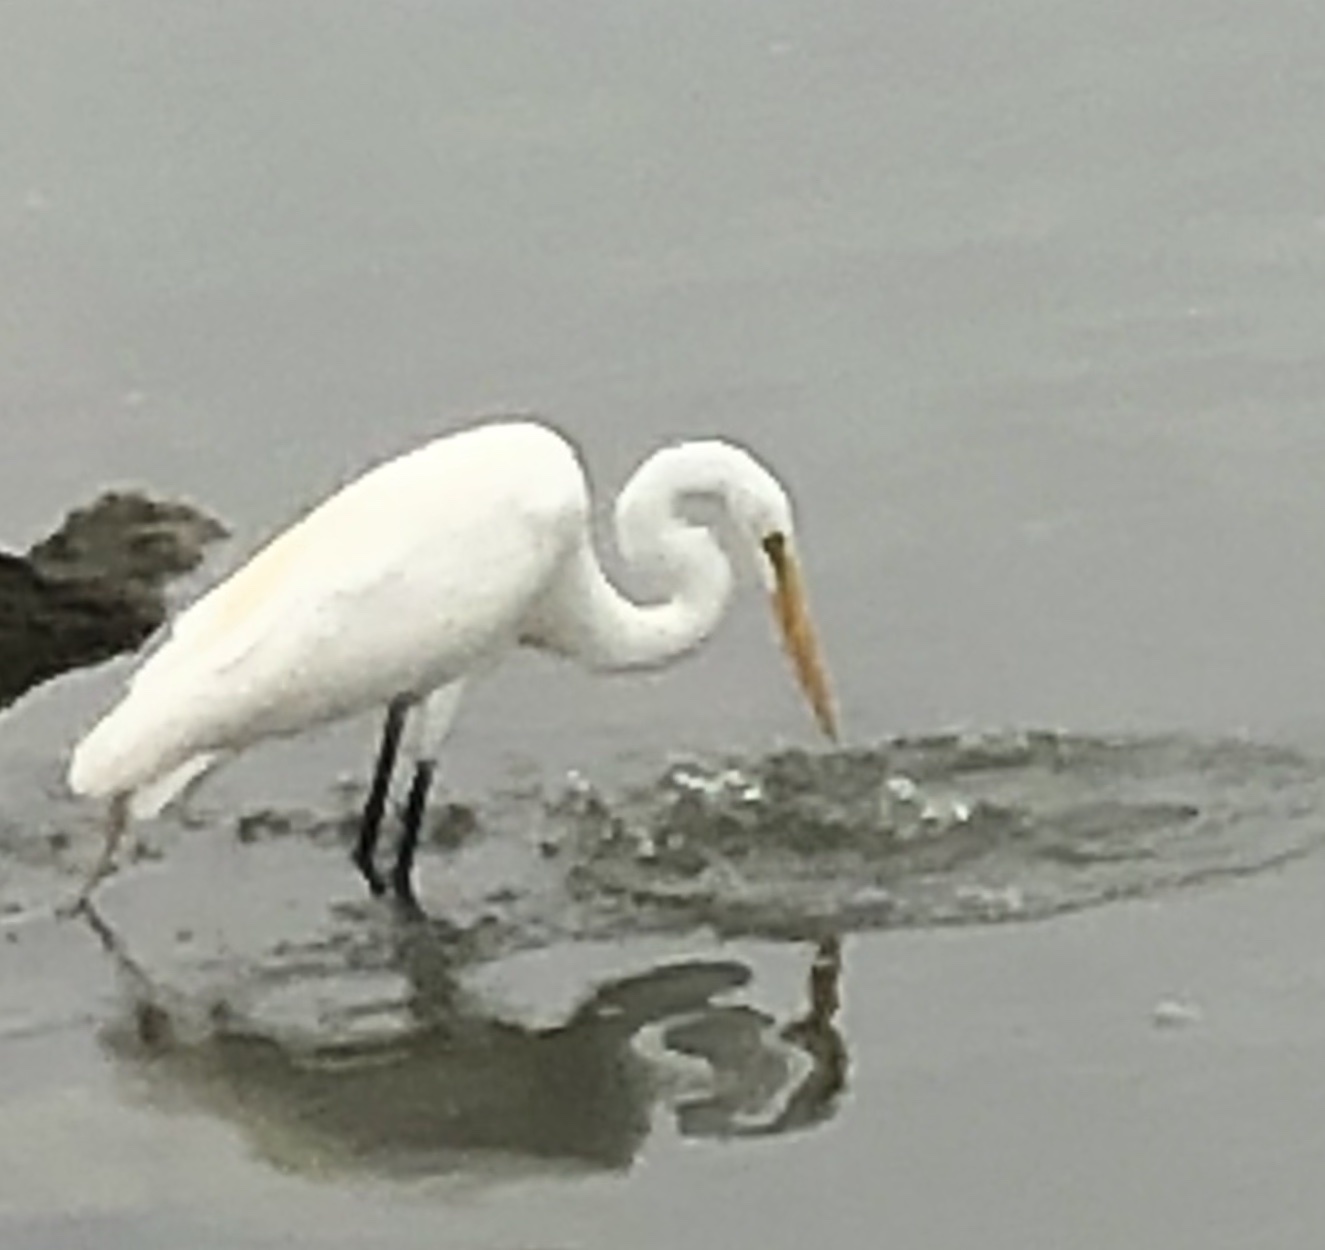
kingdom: Animalia
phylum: Chordata
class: Aves
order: Pelecaniformes
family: Ardeidae
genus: Ardea
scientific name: Ardea alba
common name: Great egret
